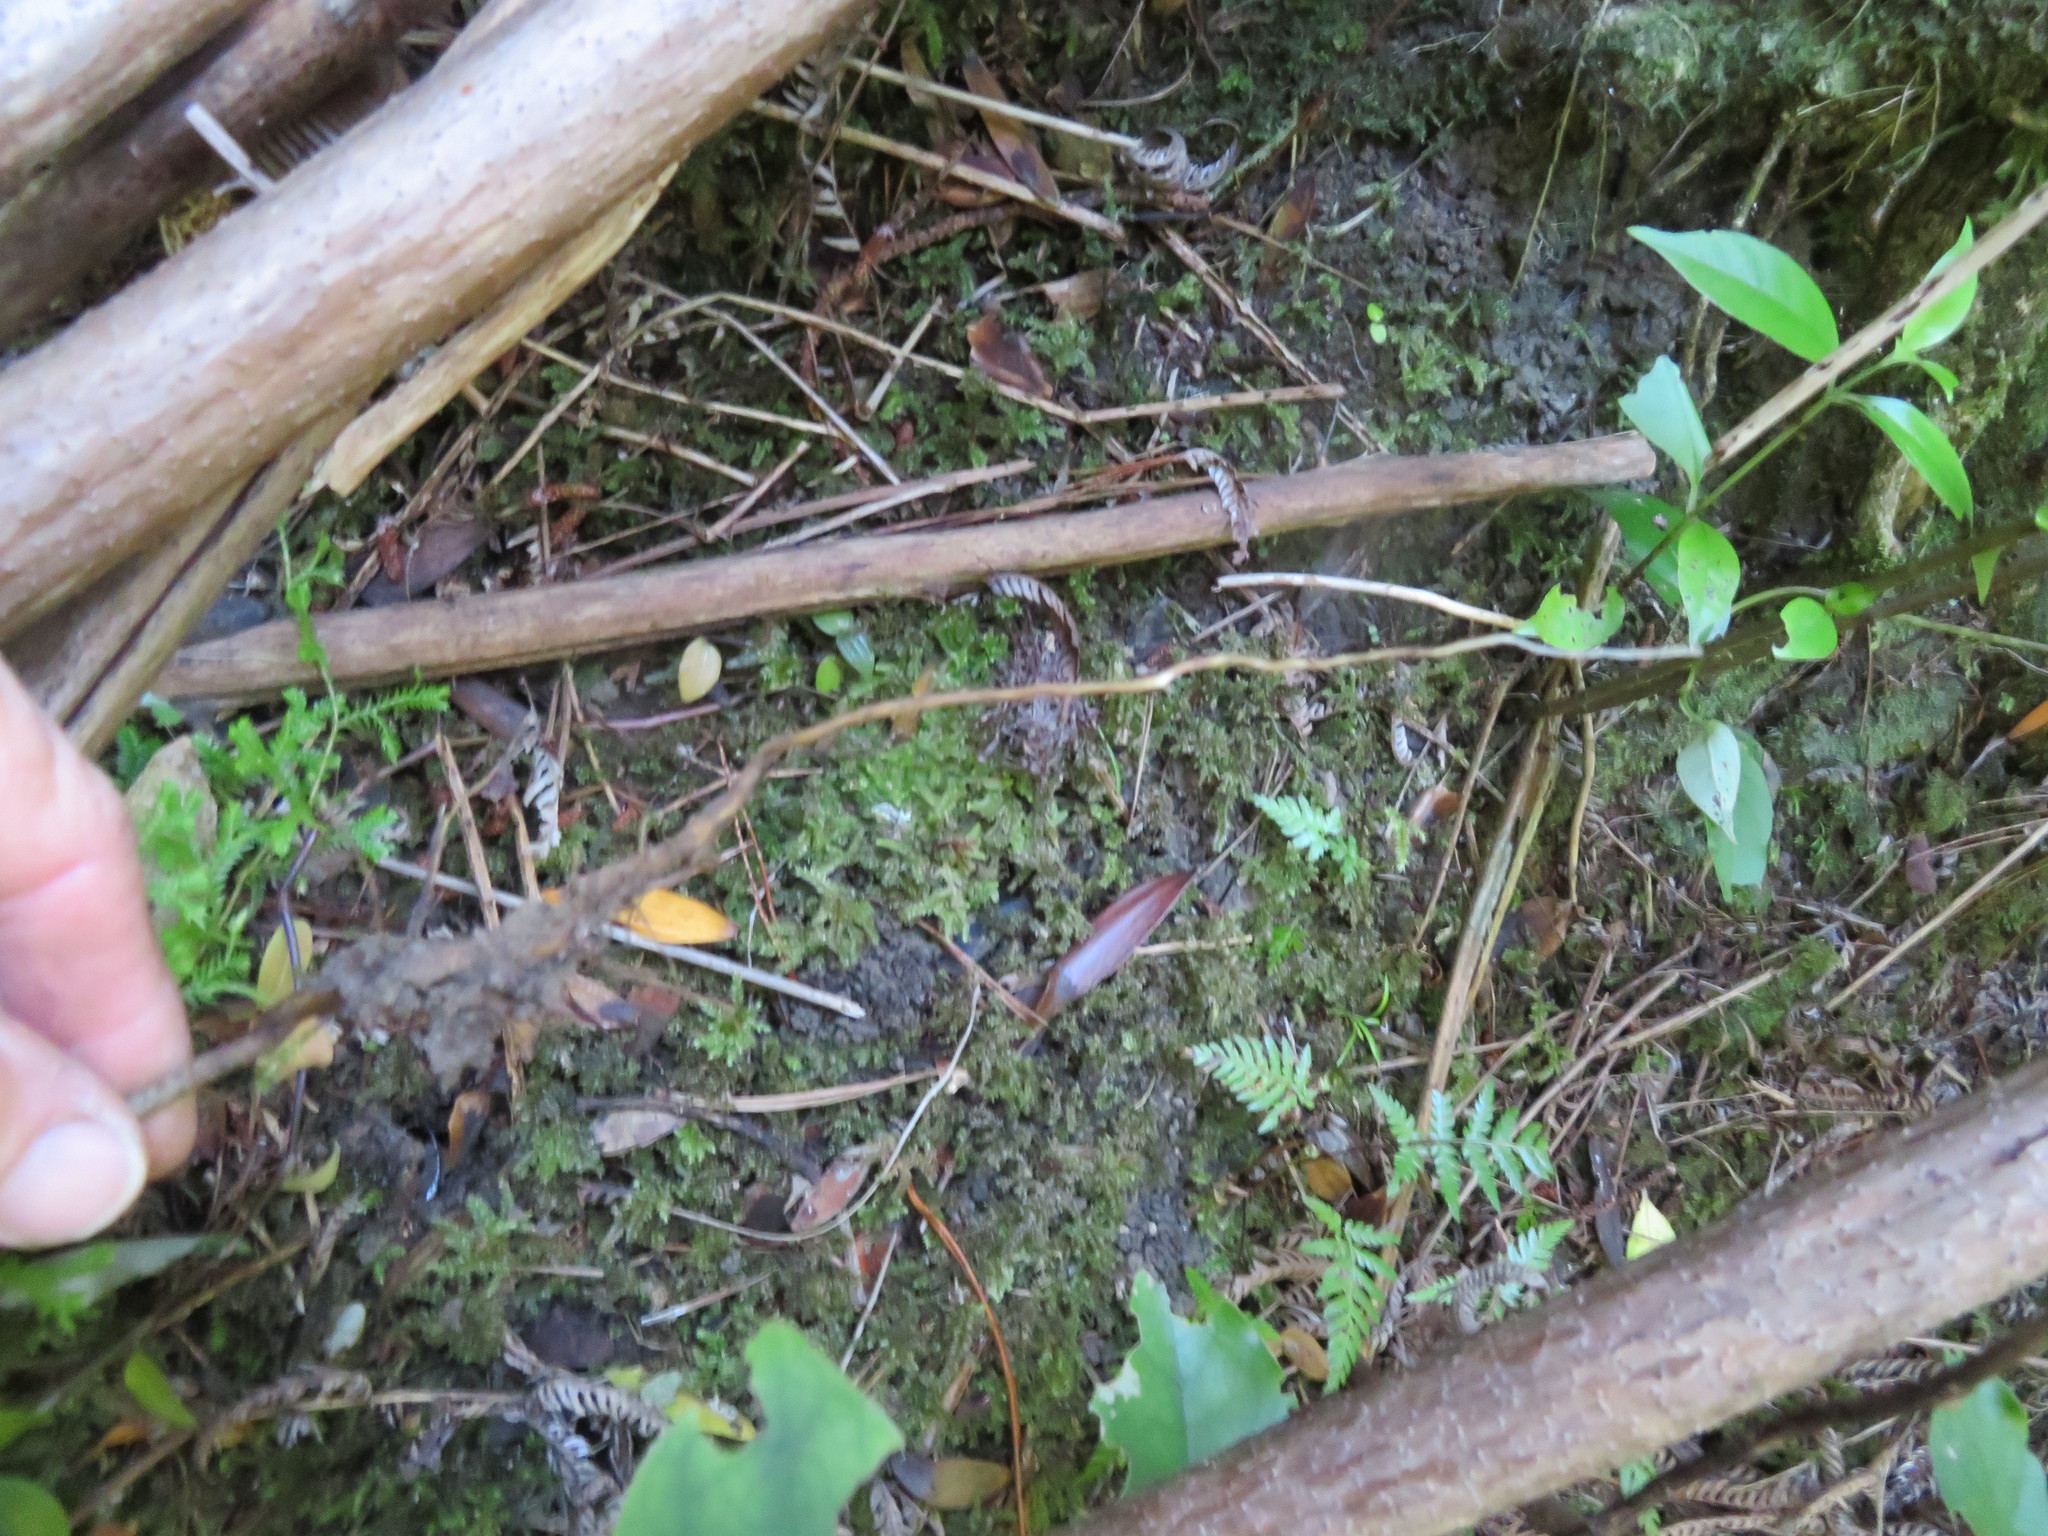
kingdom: Plantae
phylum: Tracheophyta
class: Magnoliopsida
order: Rosales
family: Elaeagnaceae
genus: Elaeagnus
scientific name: Elaeagnus reflexa
